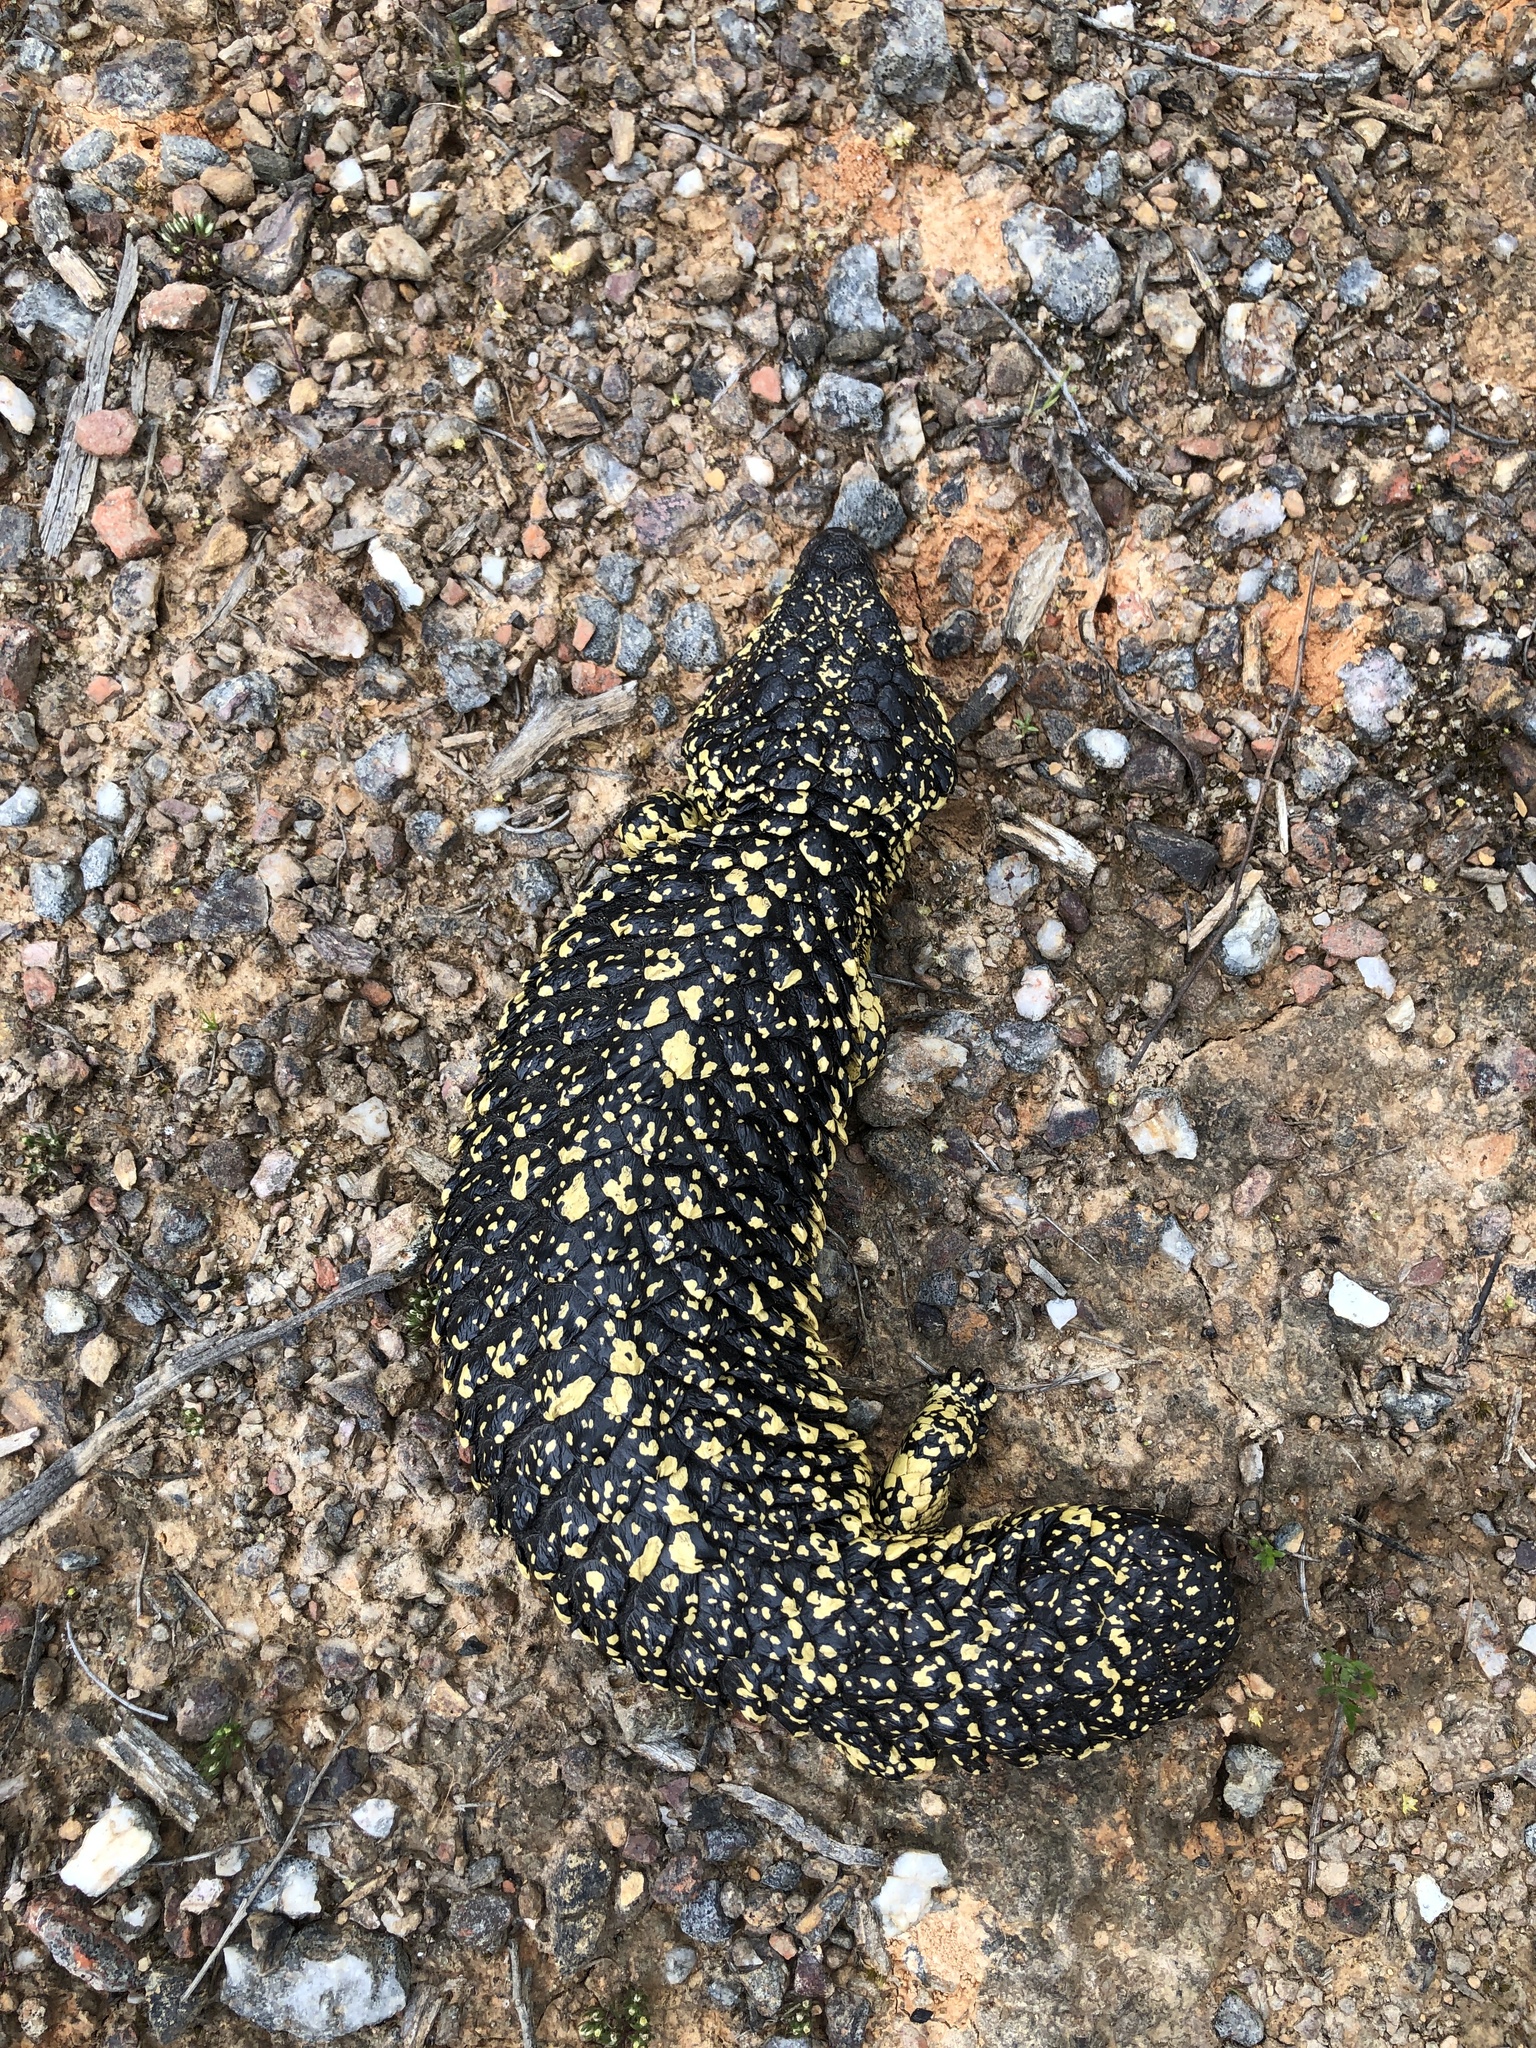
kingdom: Animalia
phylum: Chordata
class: Squamata
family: Scincidae
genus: Tiliqua
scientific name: Tiliqua rugosa
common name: Pinecone lizard
